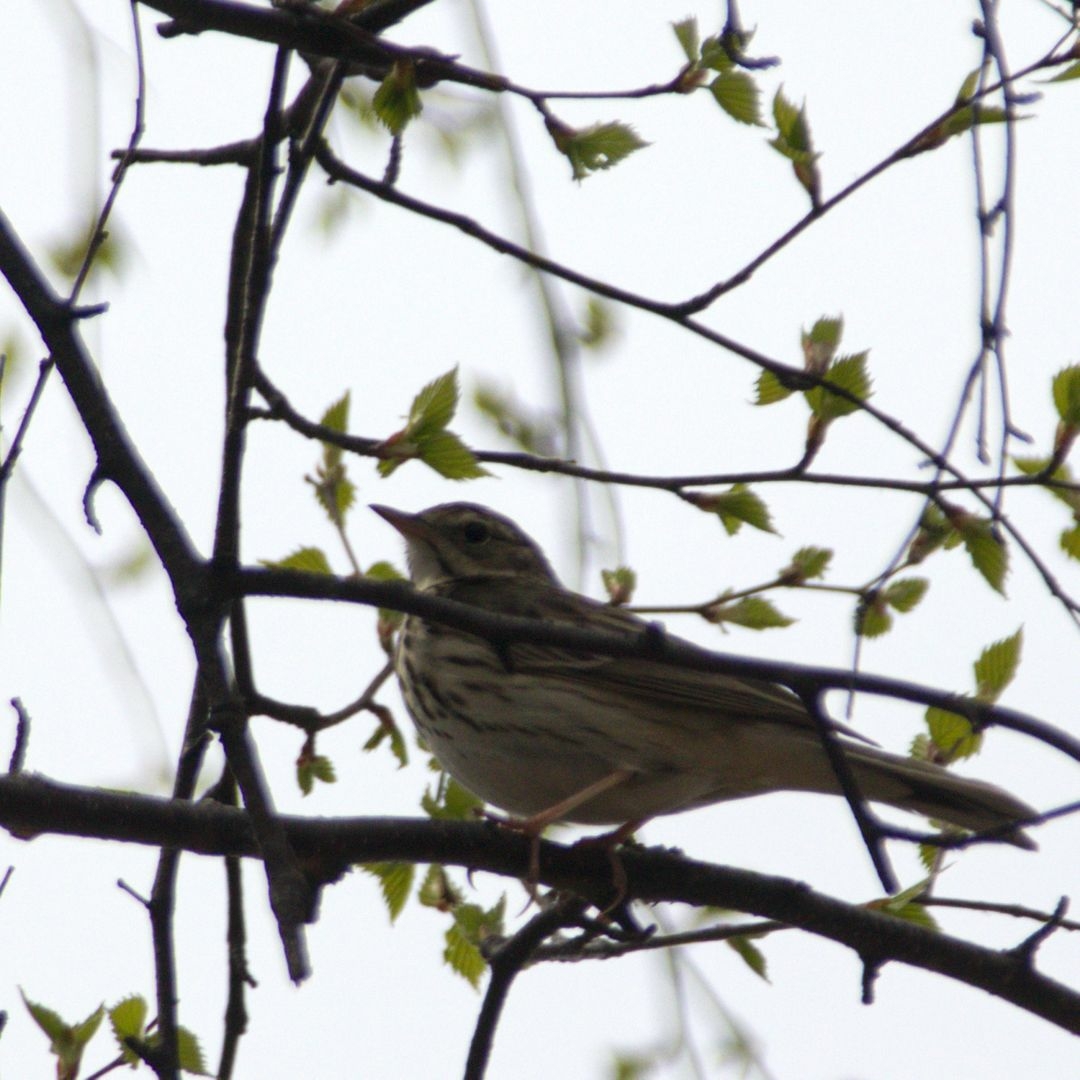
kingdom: Animalia
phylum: Chordata
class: Aves
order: Passeriformes
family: Motacillidae
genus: Anthus
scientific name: Anthus trivialis
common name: Tree pipit
